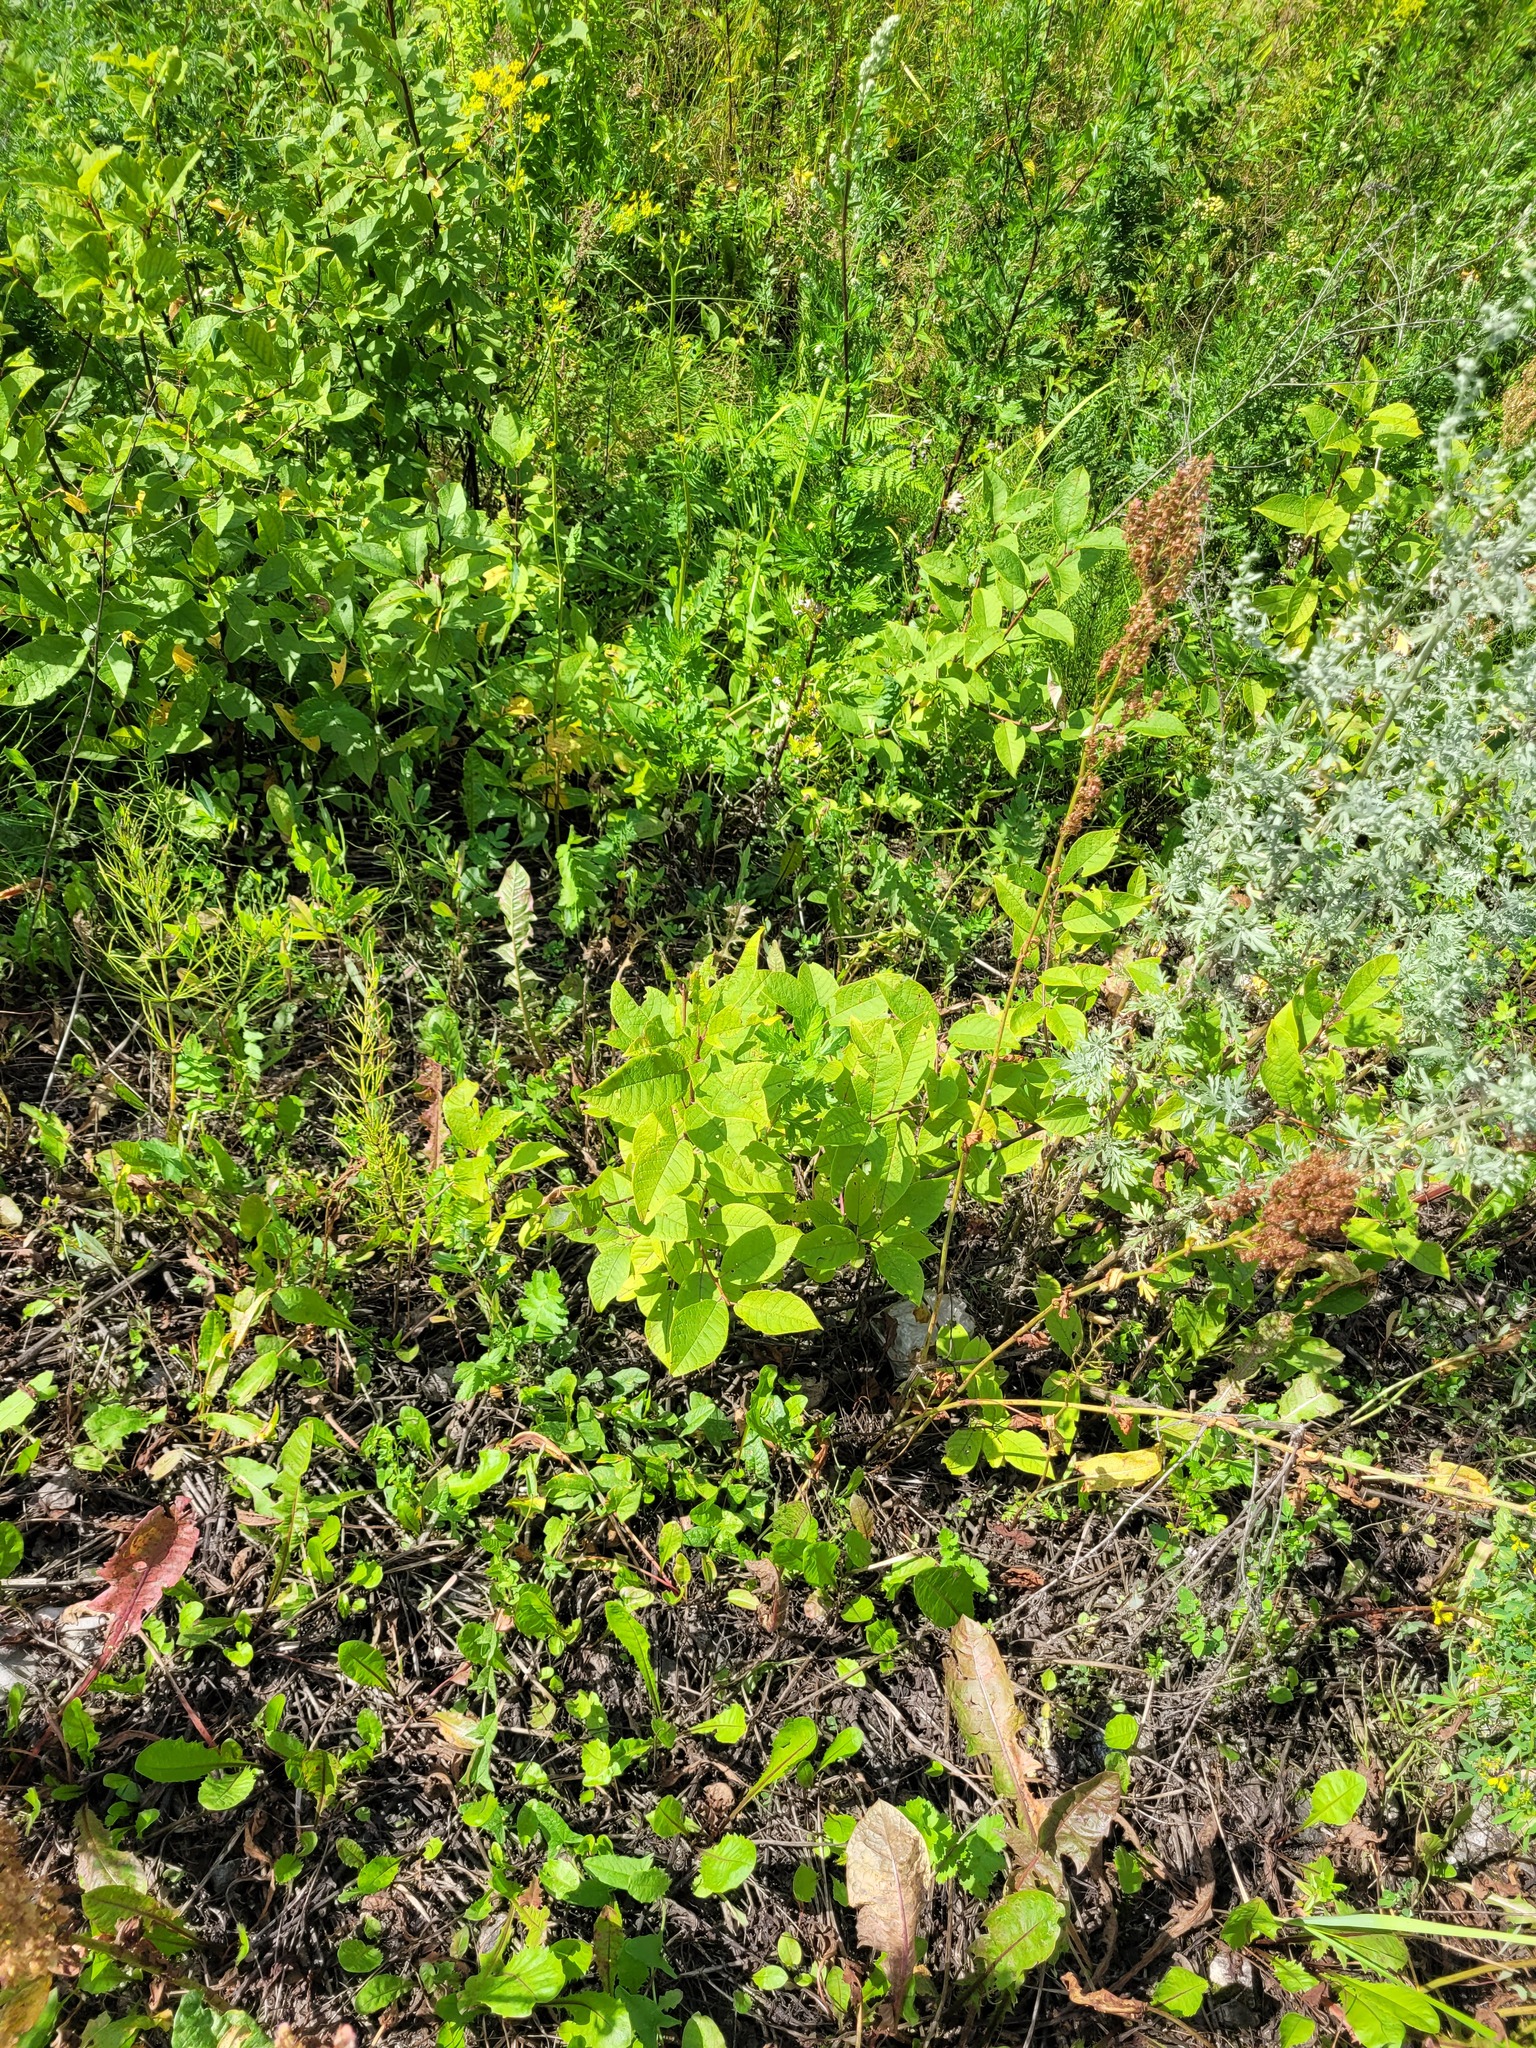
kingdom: Plantae
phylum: Tracheophyta
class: Magnoliopsida
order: Rosales
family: Rosaceae
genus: Prunus
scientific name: Prunus padus
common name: Bird cherry
